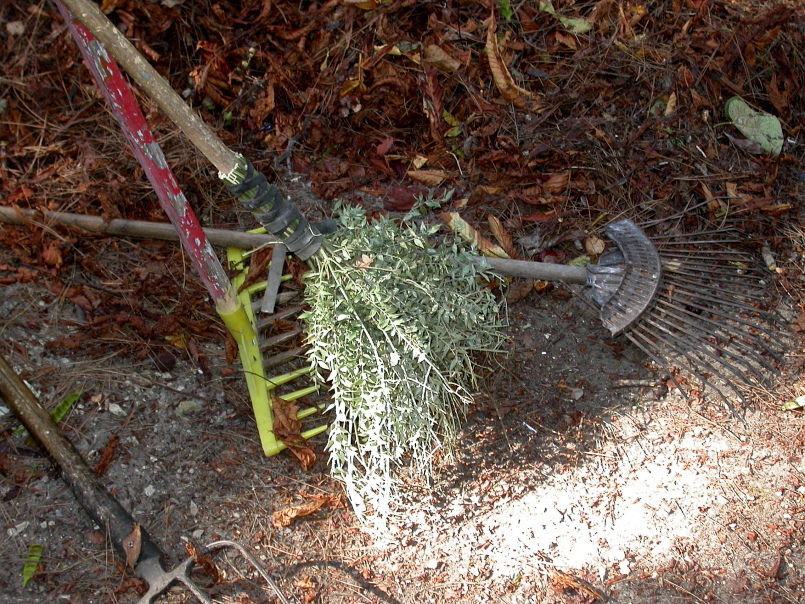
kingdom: Plantae
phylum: Tracheophyta
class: Liliopsida
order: Asparagales
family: Asparagaceae
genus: Ruscus
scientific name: Ruscus aculeatus
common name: Butcher's-broom
